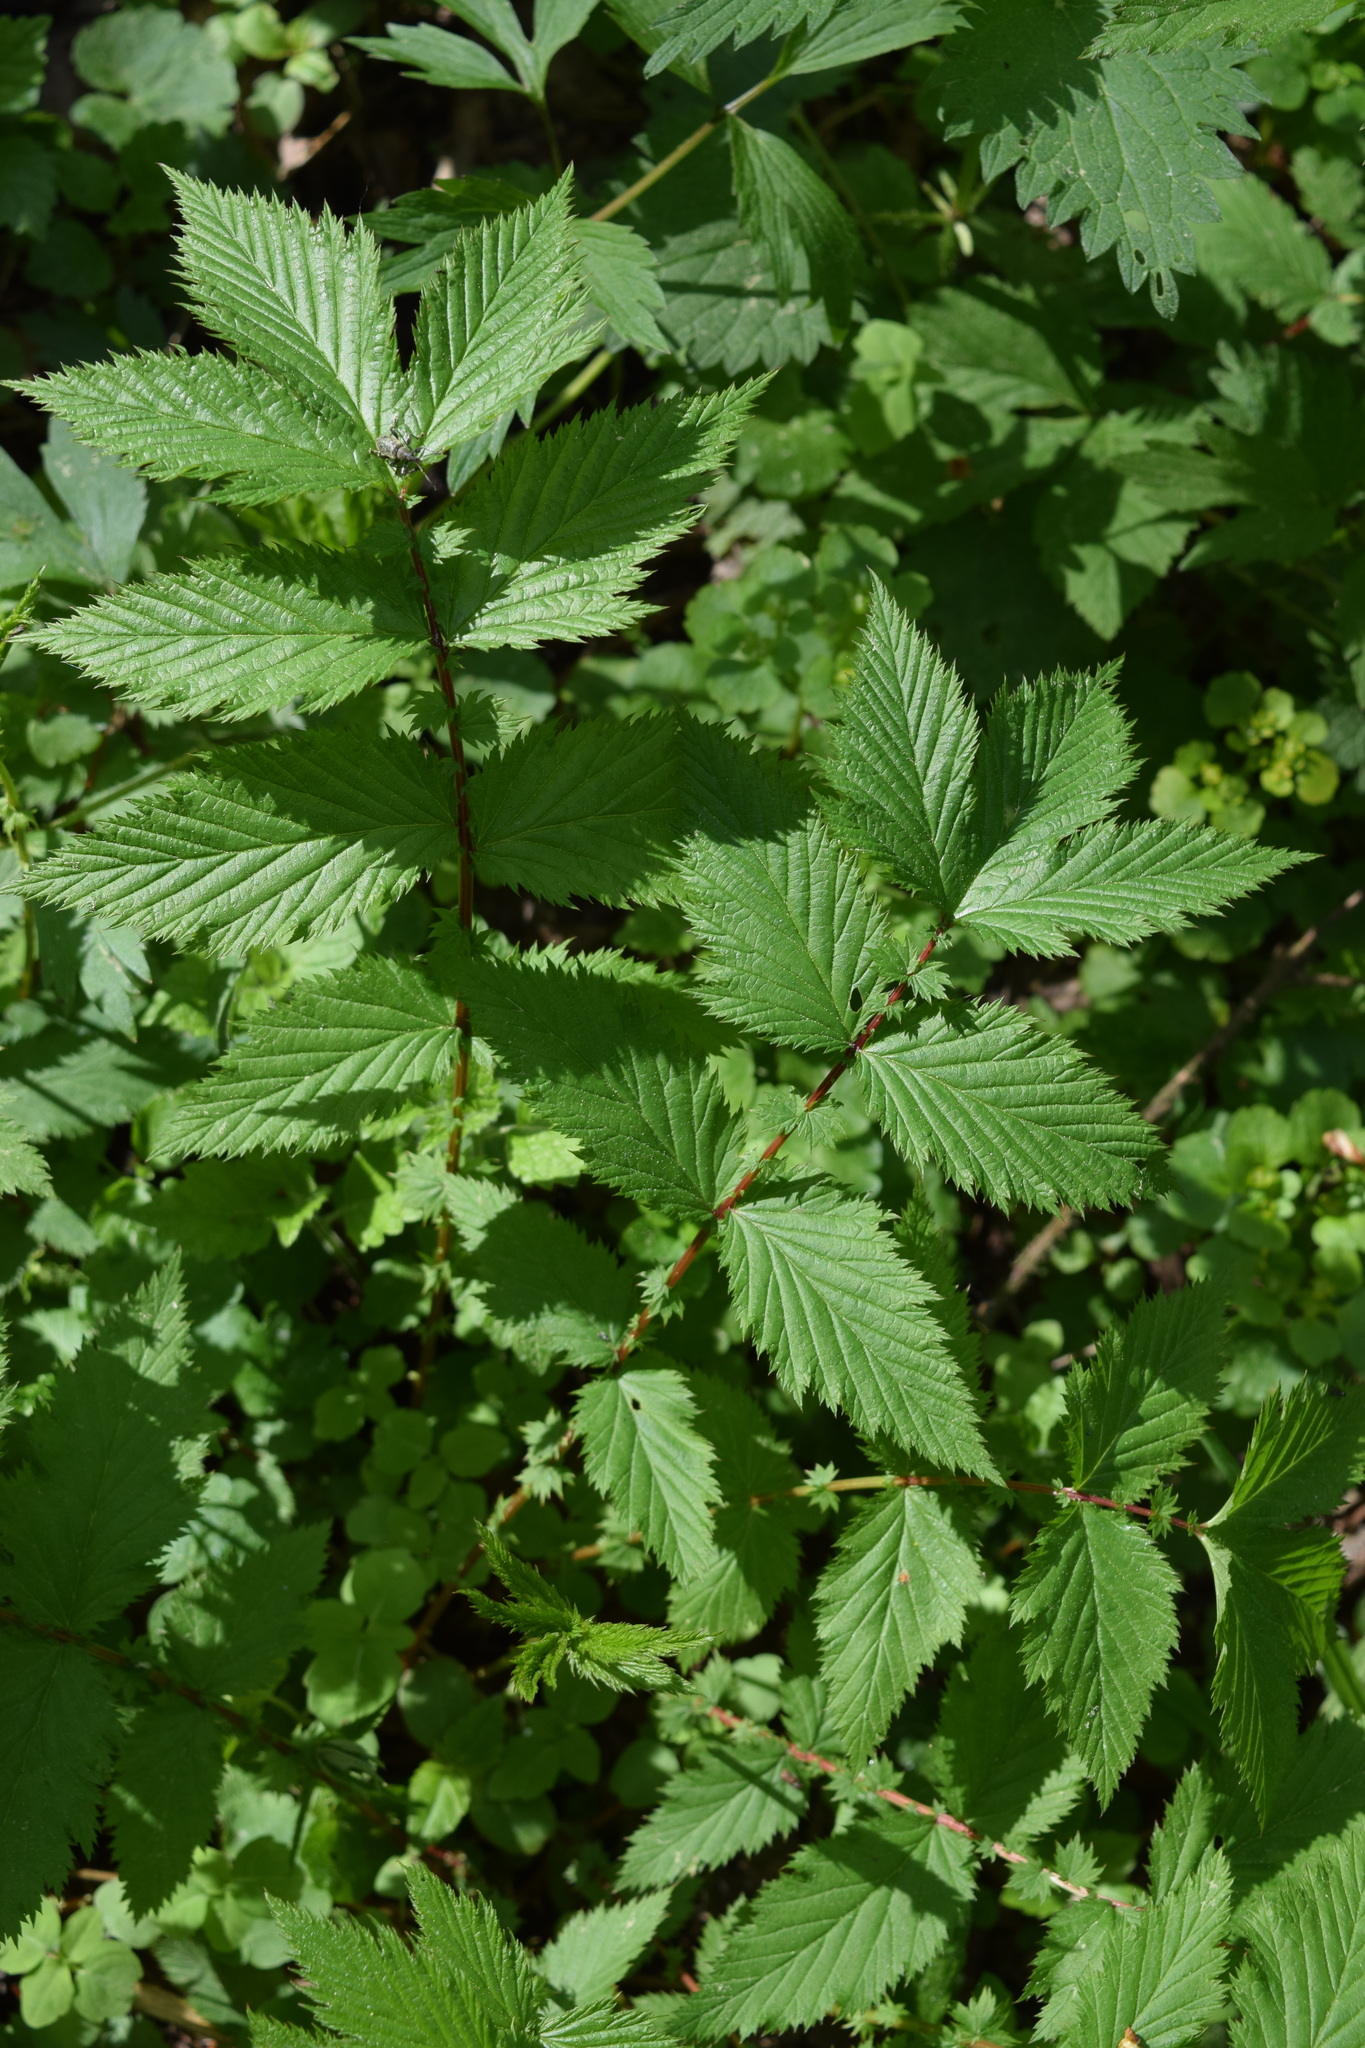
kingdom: Plantae
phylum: Tracheophyta
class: Magnoliopsida
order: Rosales
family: Rosaceae
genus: Filipendula
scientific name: Filipendula ulmaria
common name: Meadowsweet
